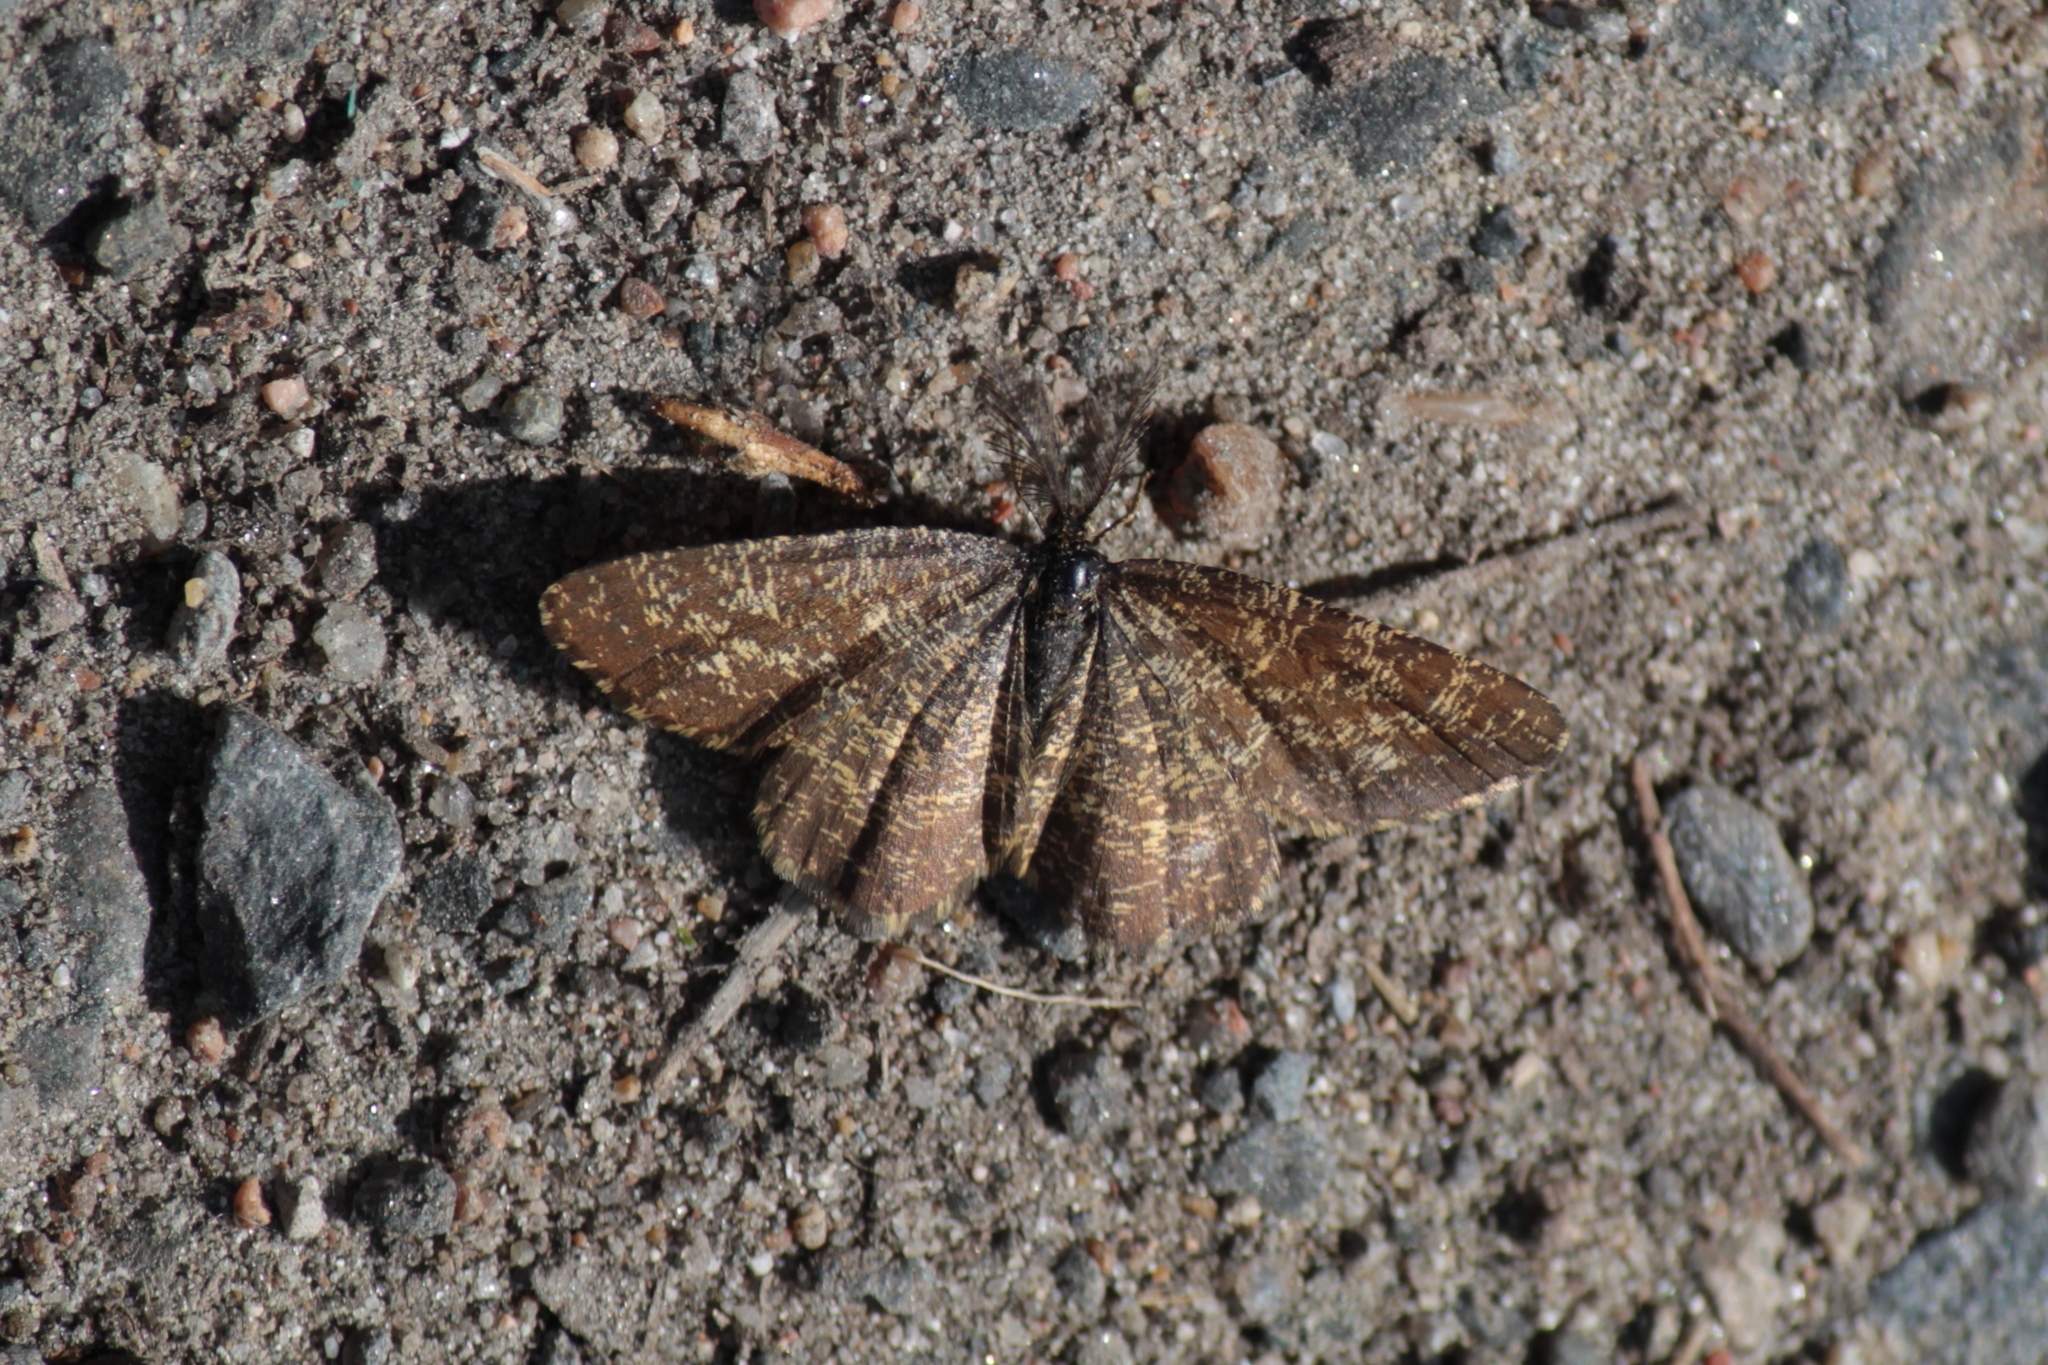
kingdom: Animalia
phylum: Arthropoda
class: Insecta
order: Lepidoptera
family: Geometridae
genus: Ematurga
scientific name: Ematurga atomaria
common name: Common heath
